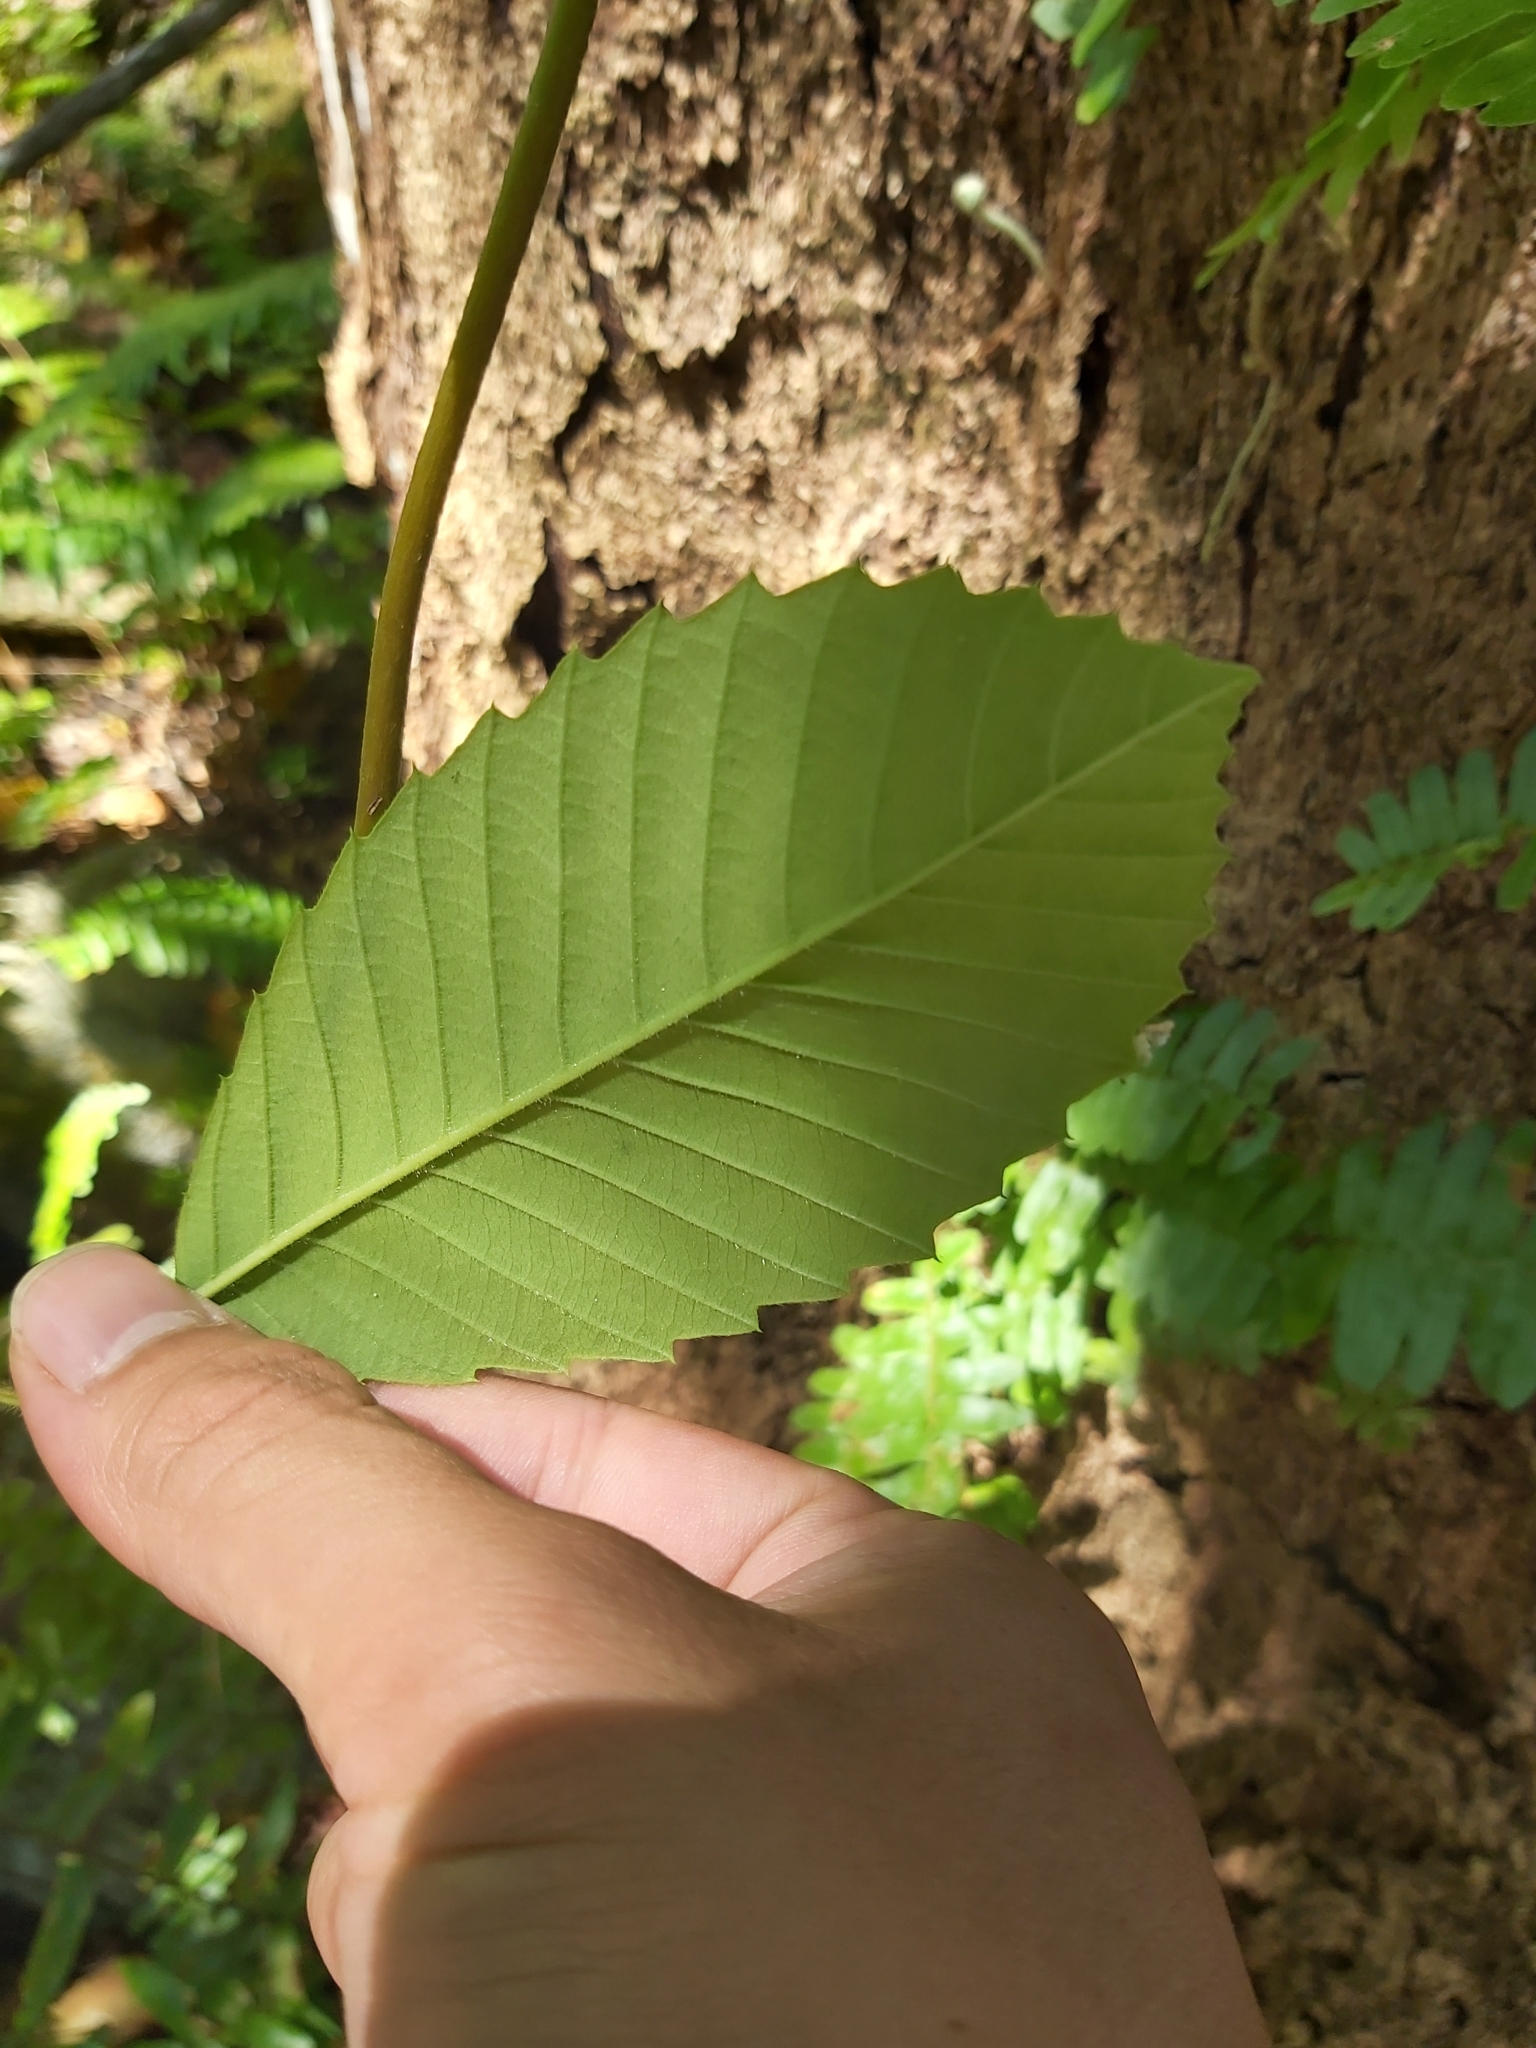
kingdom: Plantae
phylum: Tracheophyta
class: Magnoliopsida
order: Dilleniales
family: Dilleniaceae
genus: Tetracera
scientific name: Tetracera nordtiana
